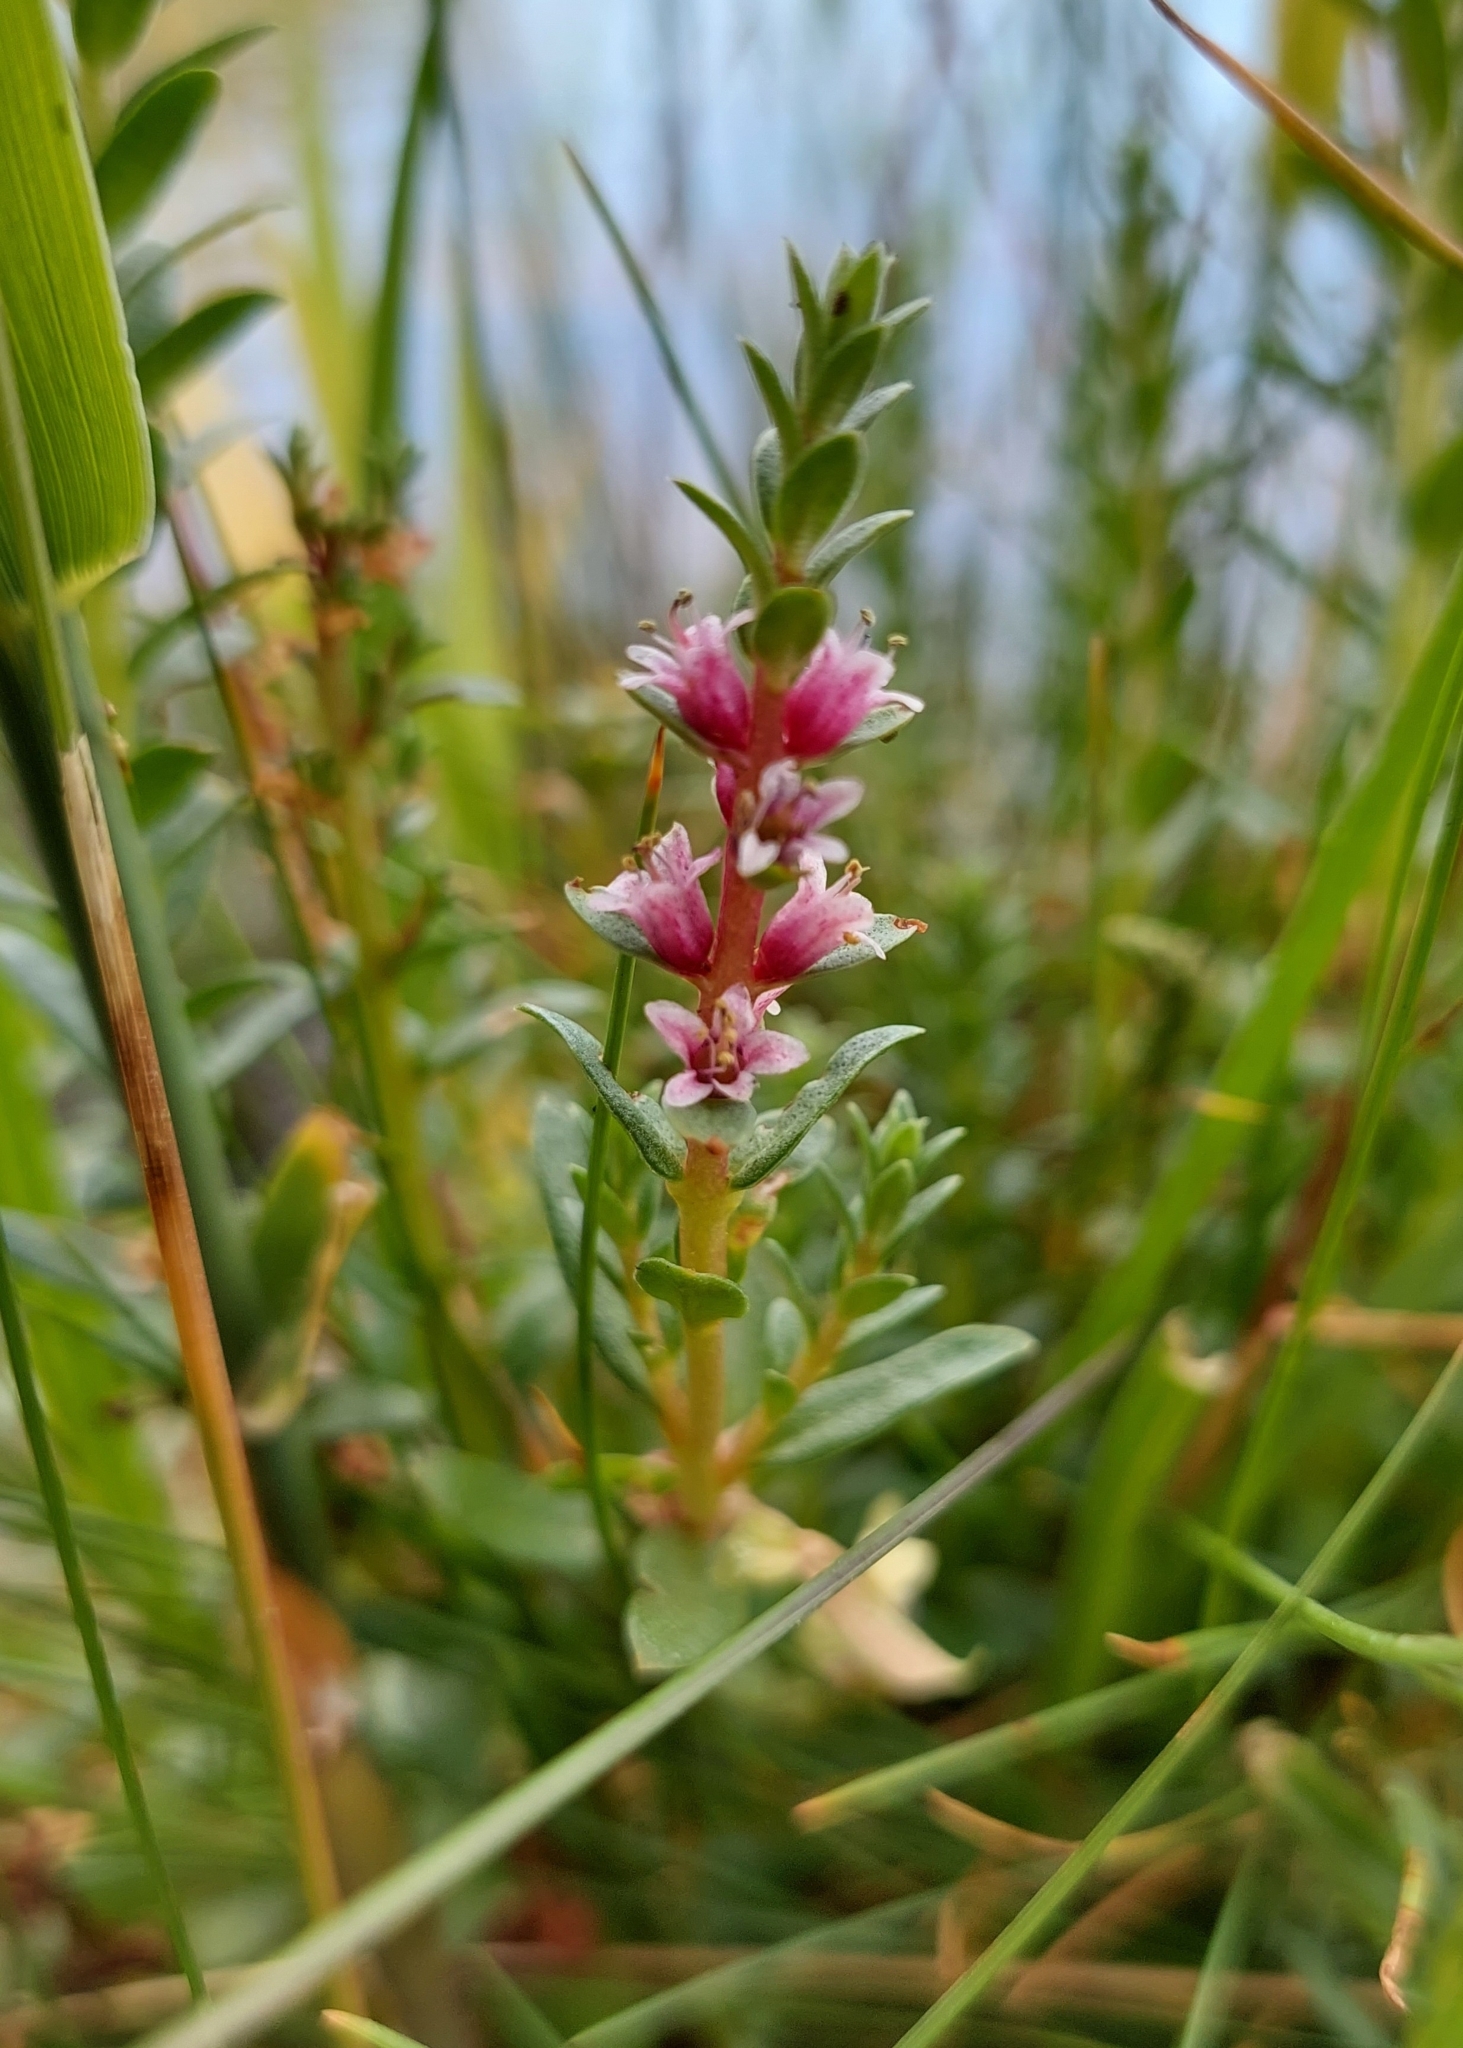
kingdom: Plantae
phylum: Tracheophyta
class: Magnoliopsida
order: Ericales
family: Primulaceae
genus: Lysimachia
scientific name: Lysimachia maritima
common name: Sea milkwort
